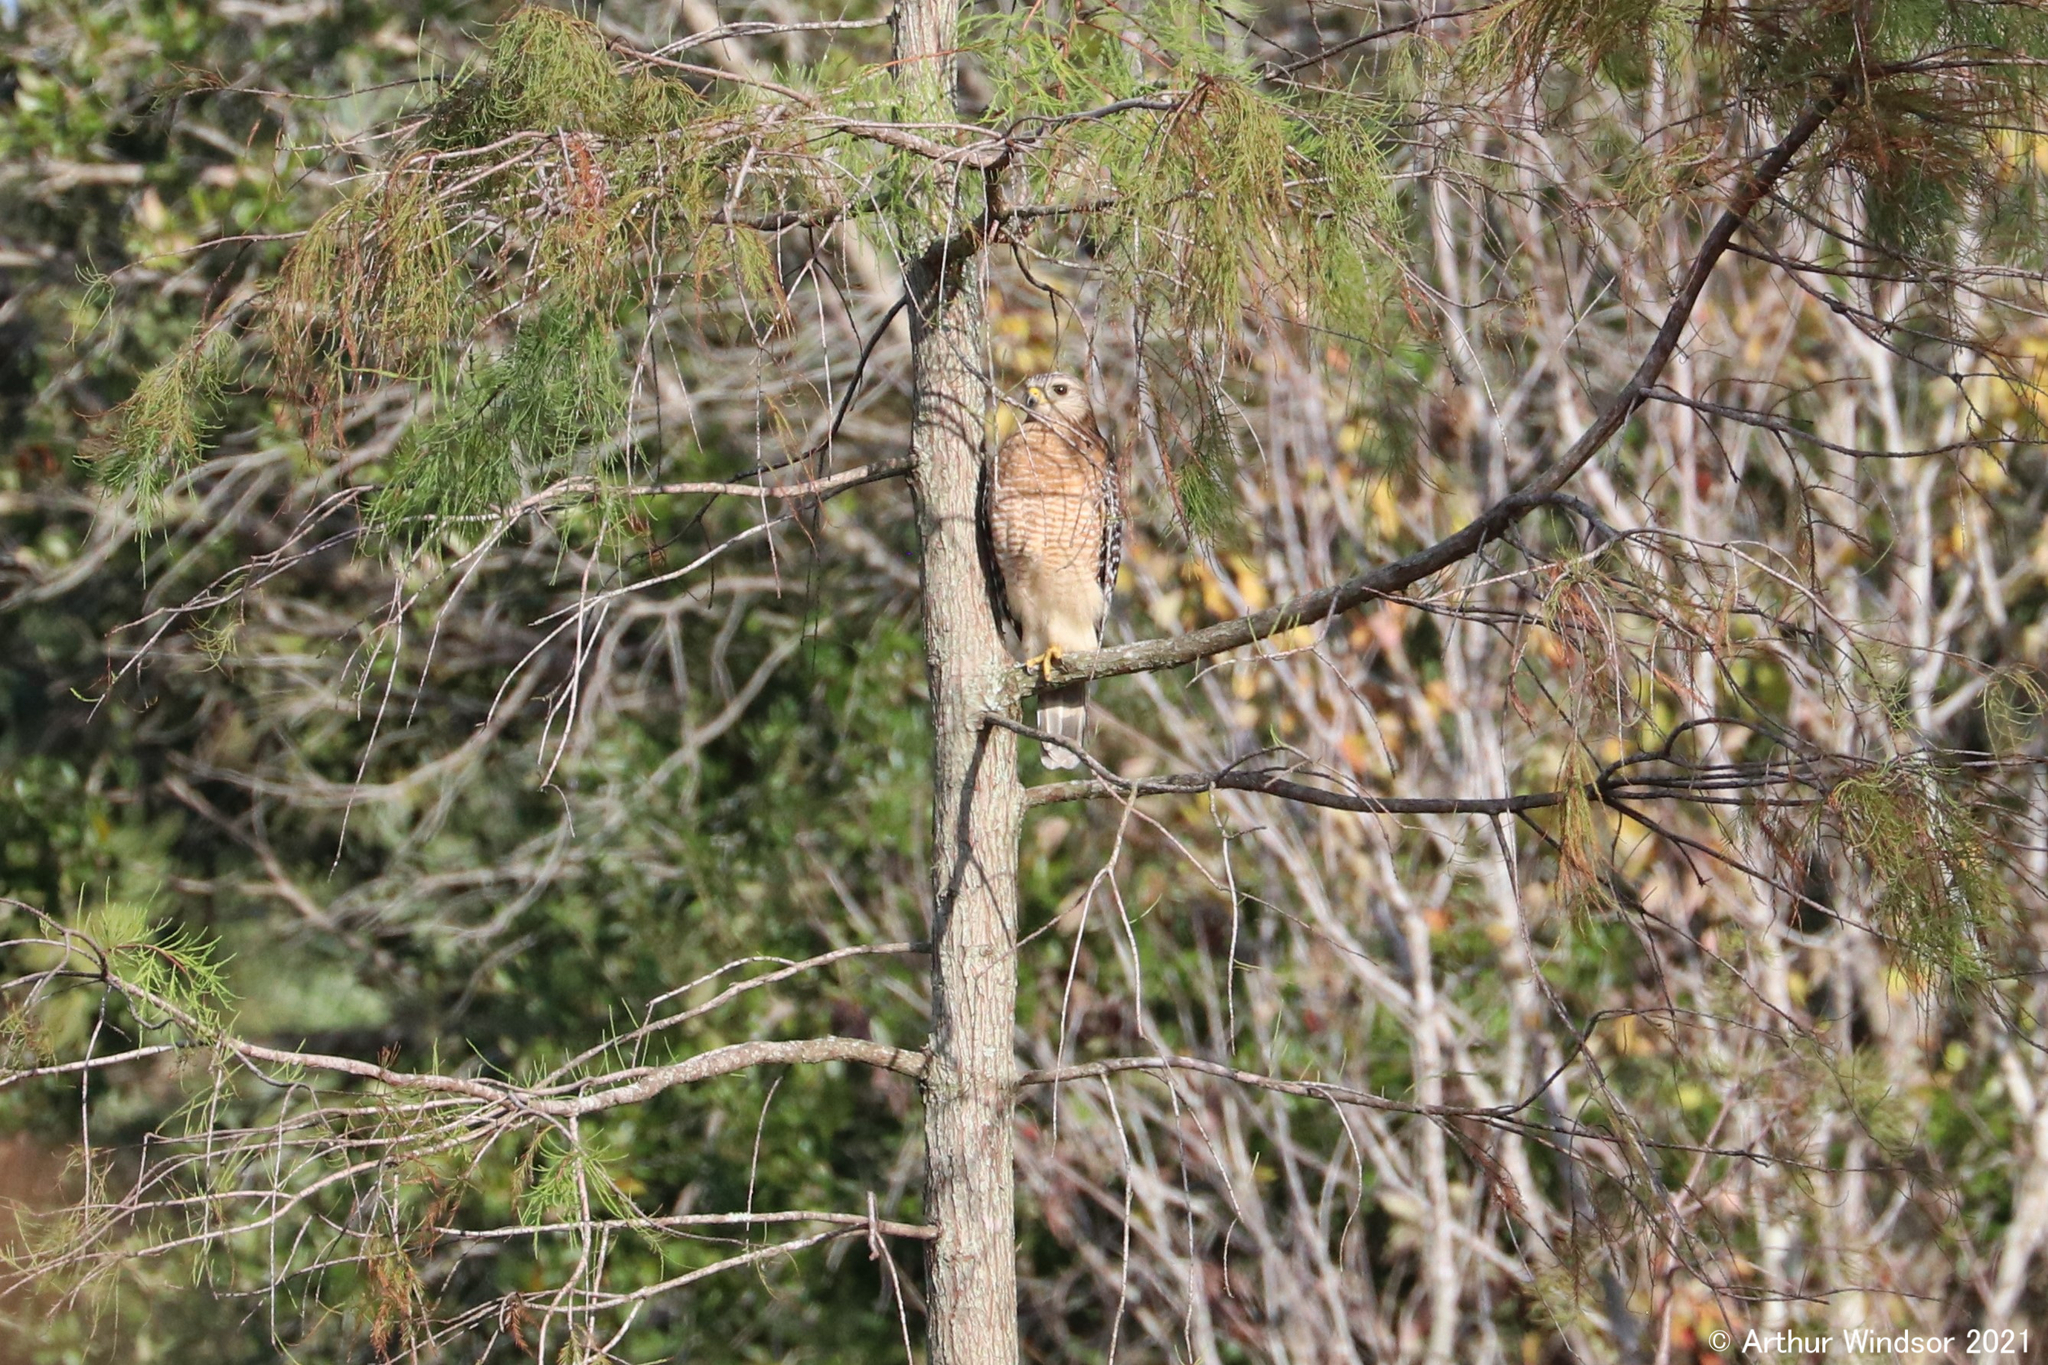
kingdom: Animalia
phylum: Chordata
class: Aves
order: Accipitriformes
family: Accipitridae
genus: Buteo
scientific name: Buteo lineatus
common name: Red-shouldered hawk
